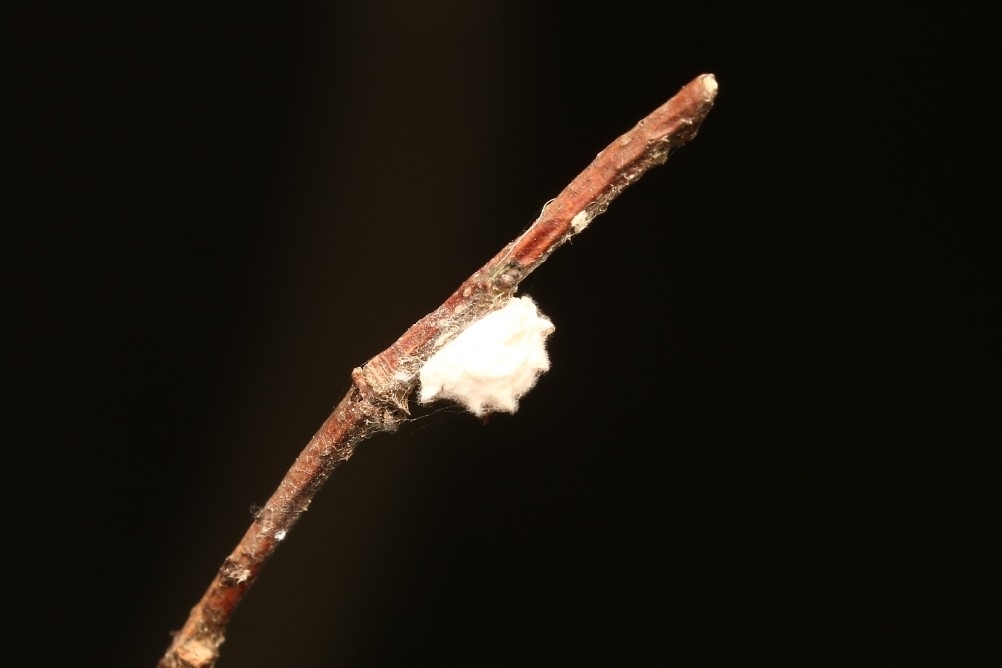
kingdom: Animalia
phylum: Arthropoda
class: Insecta
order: Lepidoptera
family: Epipyropidae
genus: Fulgoraecia
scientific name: Fulgoraecia exigua
